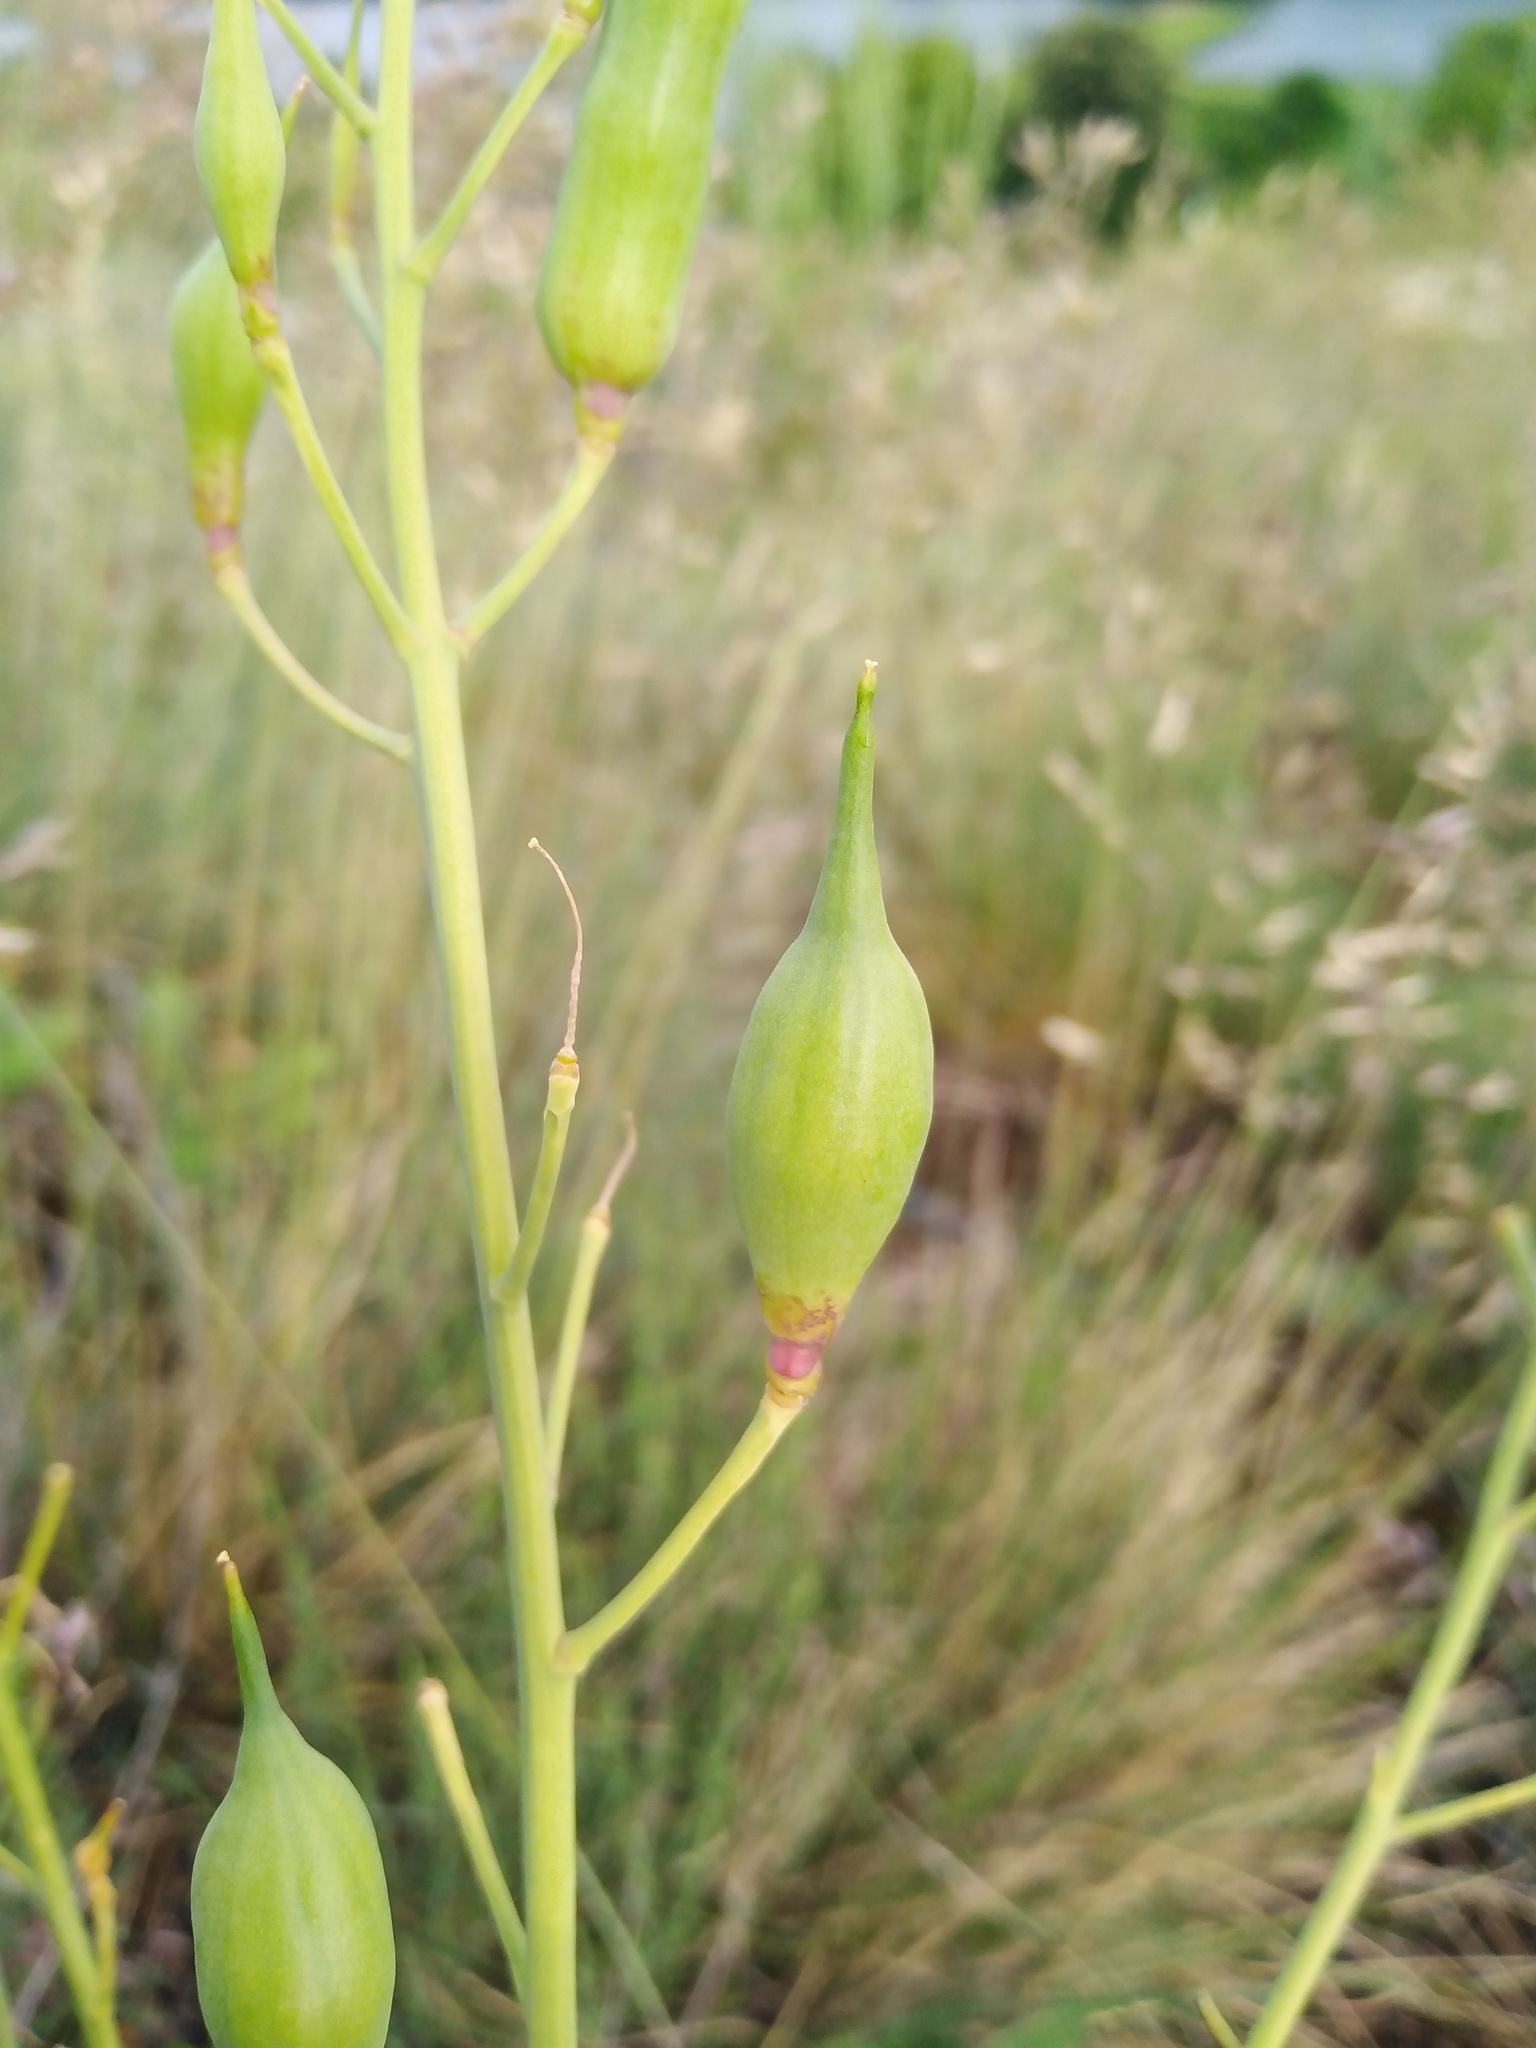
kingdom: Plantae
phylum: Tracheophyta
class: Magnoliopsida
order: Brassicales
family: Brassicaceae
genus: Raphanus
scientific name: Raphanus sativus
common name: Cultivated radish
